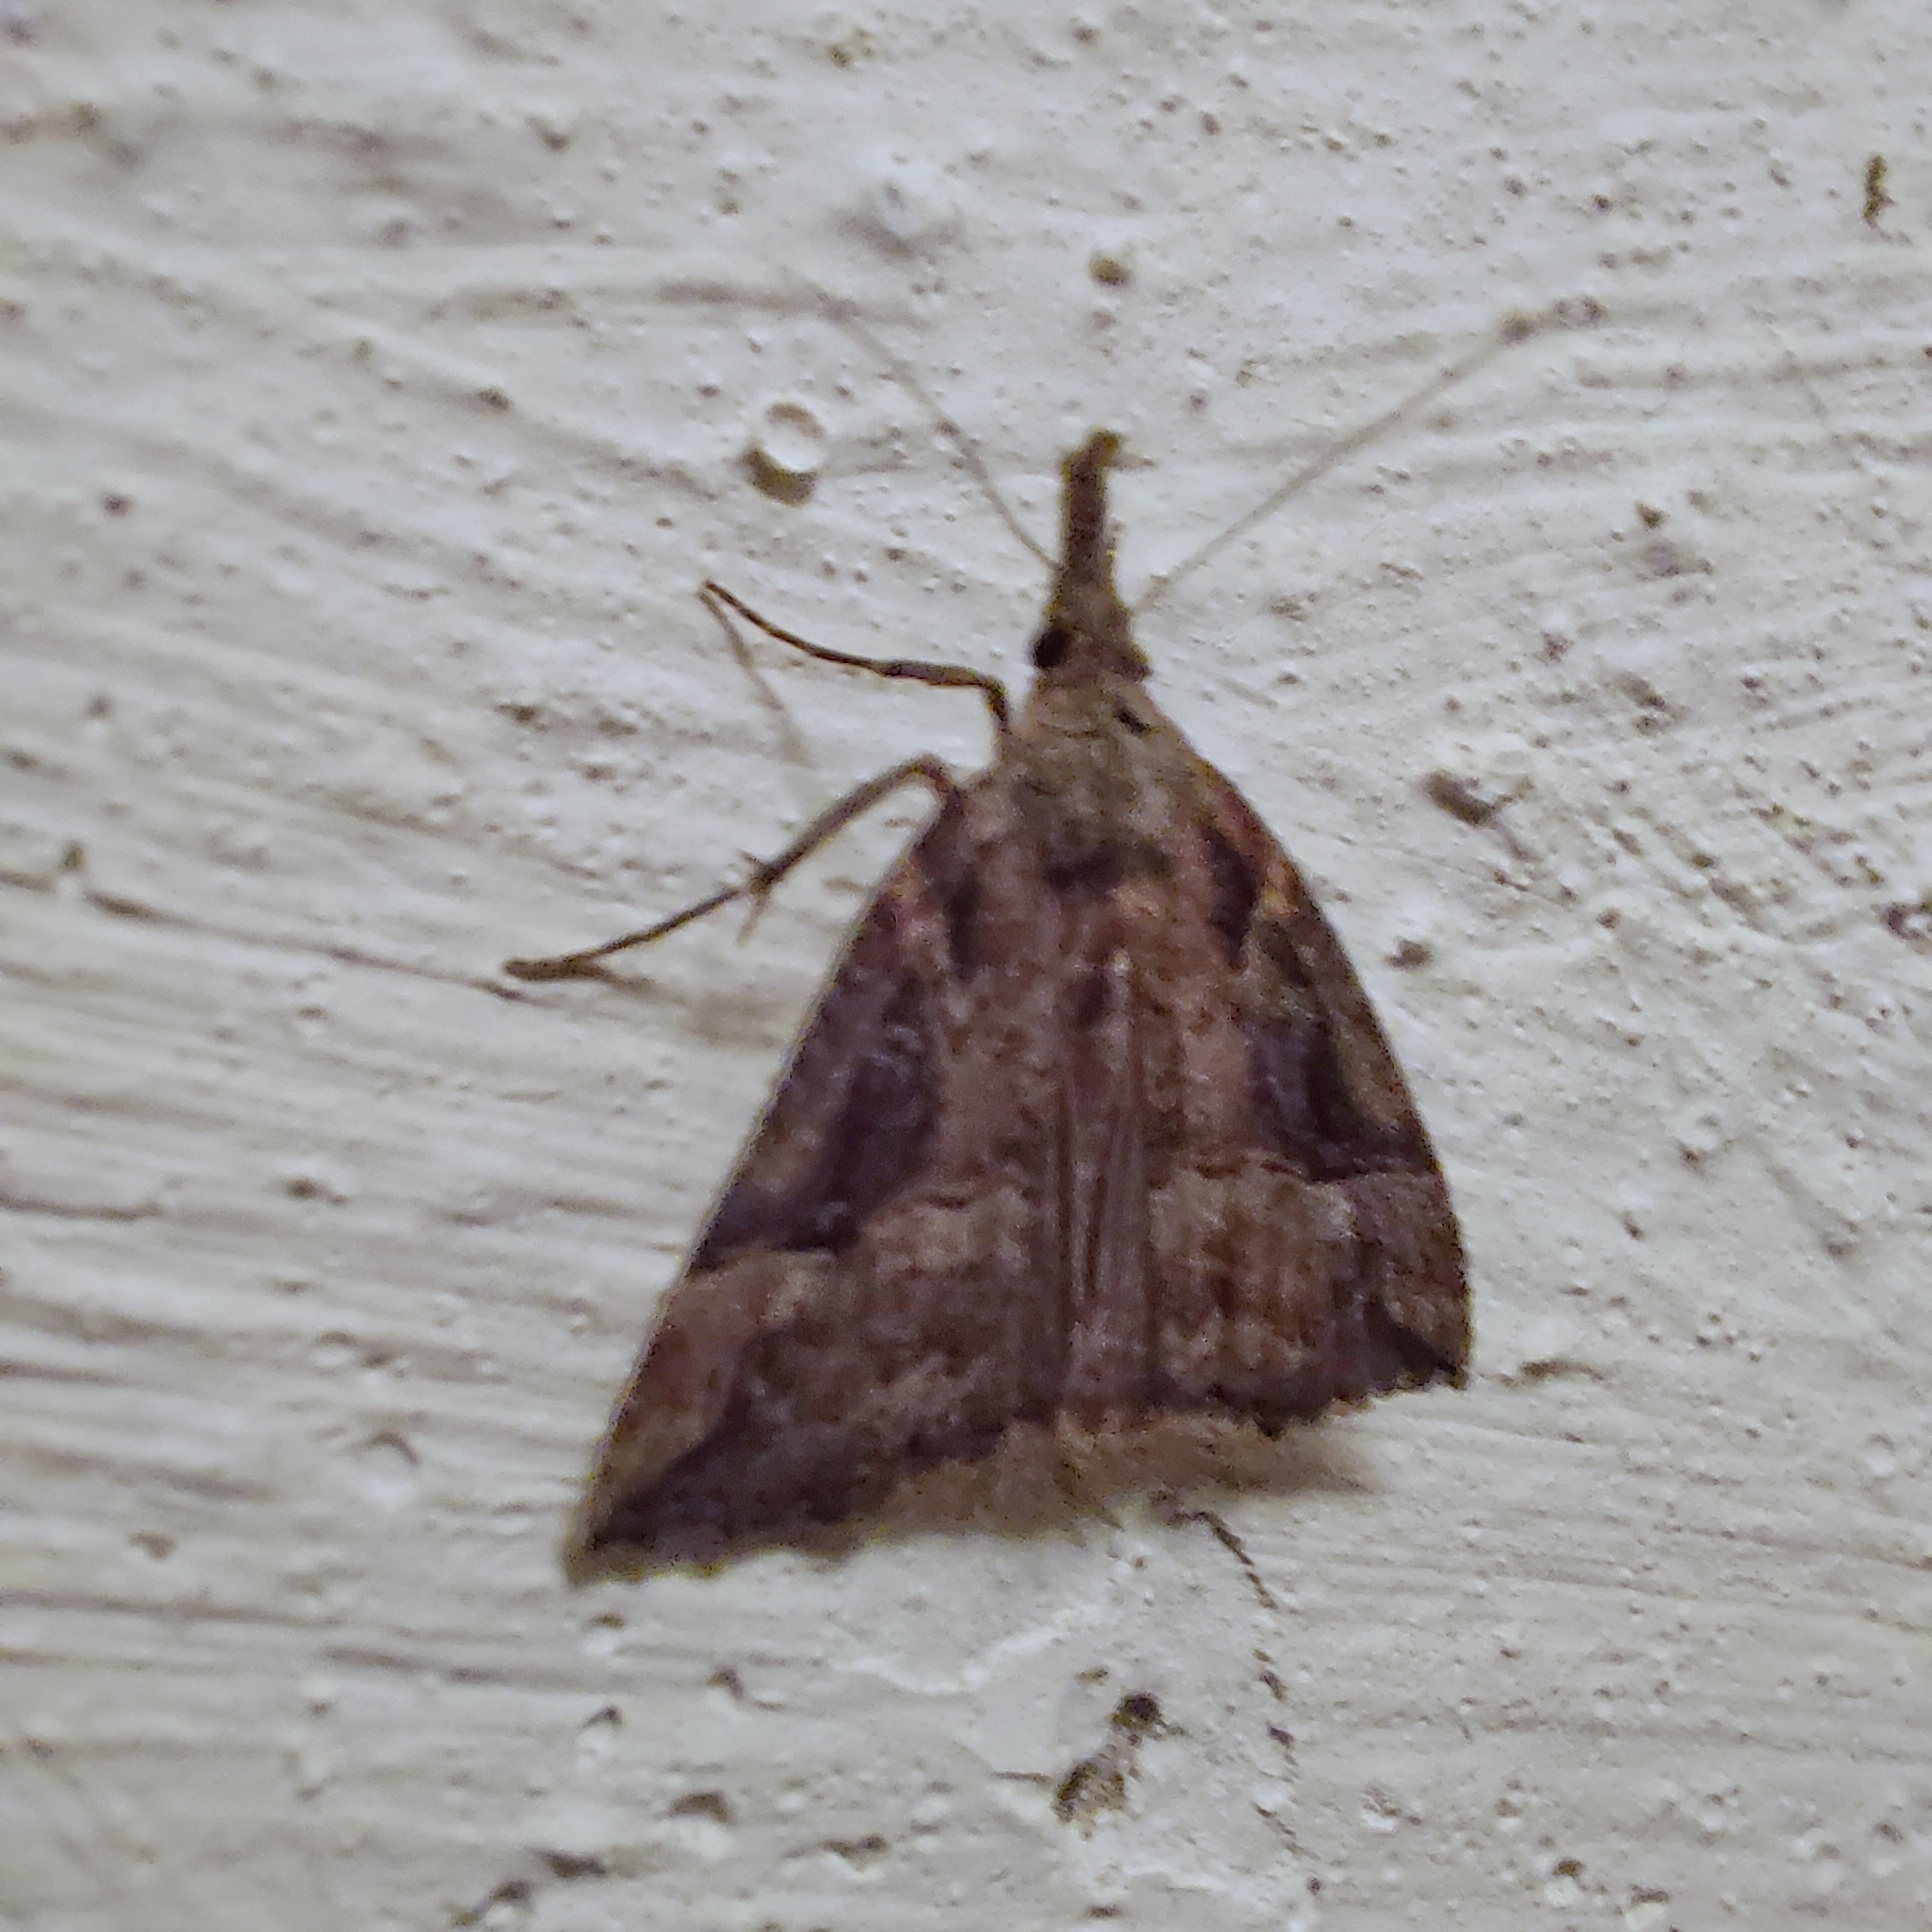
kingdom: Animalia
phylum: Arthropoda
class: Insecta
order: Lepidoptera
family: Erebidae
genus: Hypena
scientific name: Hypena rostralis
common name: Buttoned snout
